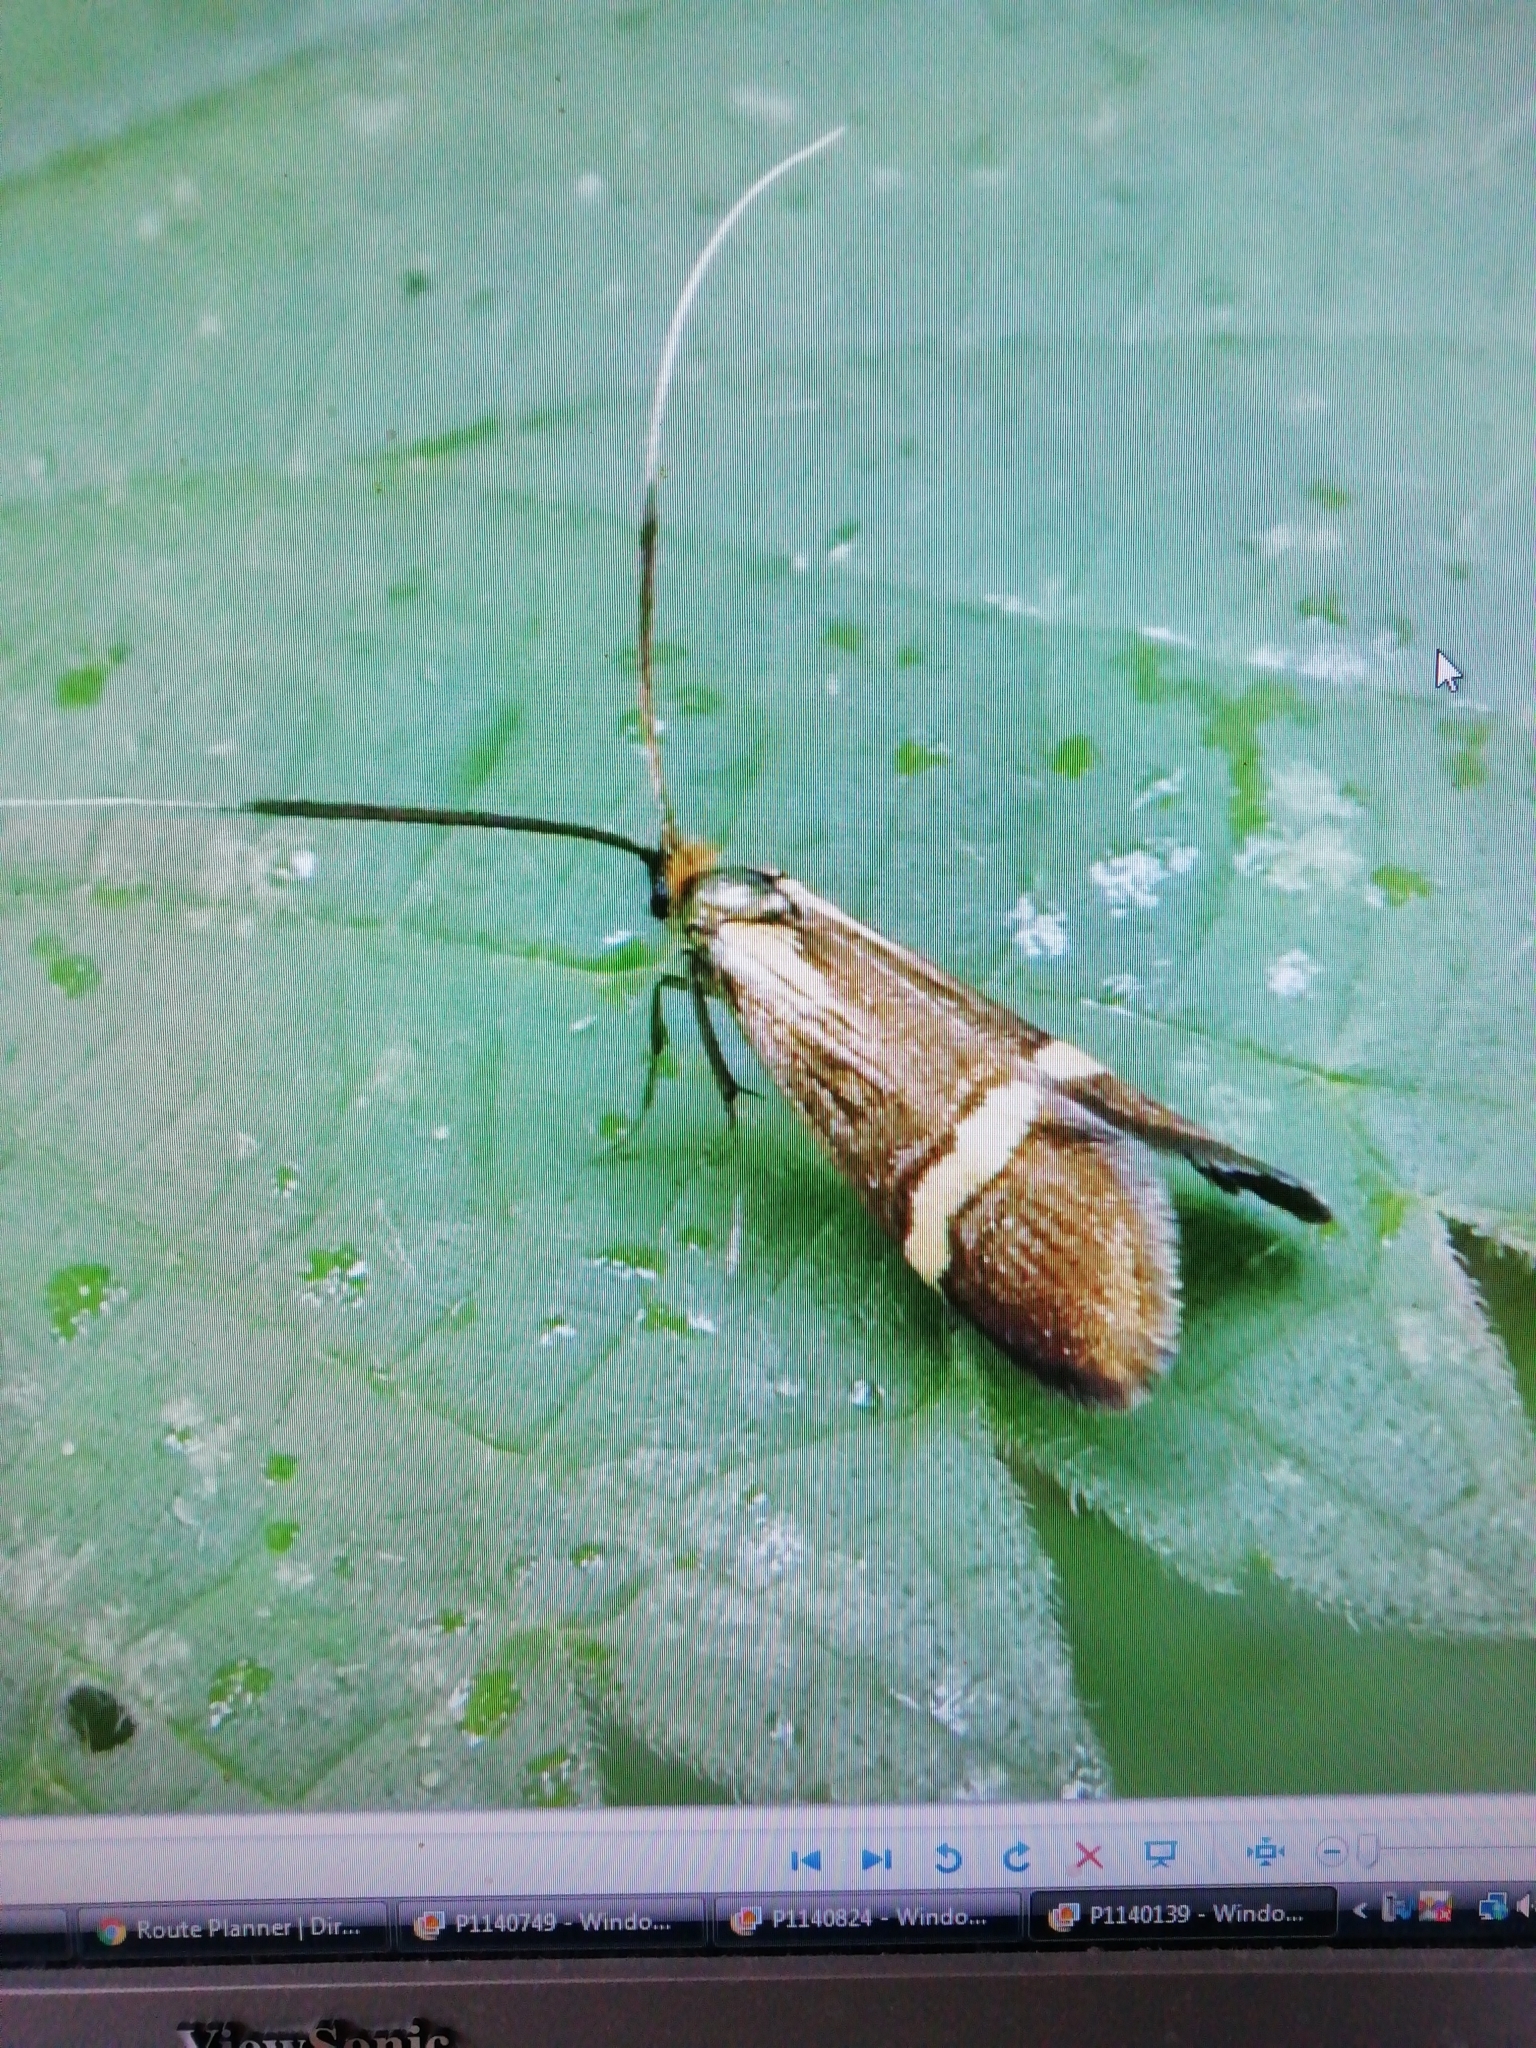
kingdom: Animalia
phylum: Arthropoda
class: Insecta
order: Lepidoptera
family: Adelidae
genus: Nemophora
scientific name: Nemophora degeerella
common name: Yellow-barred long-horn
